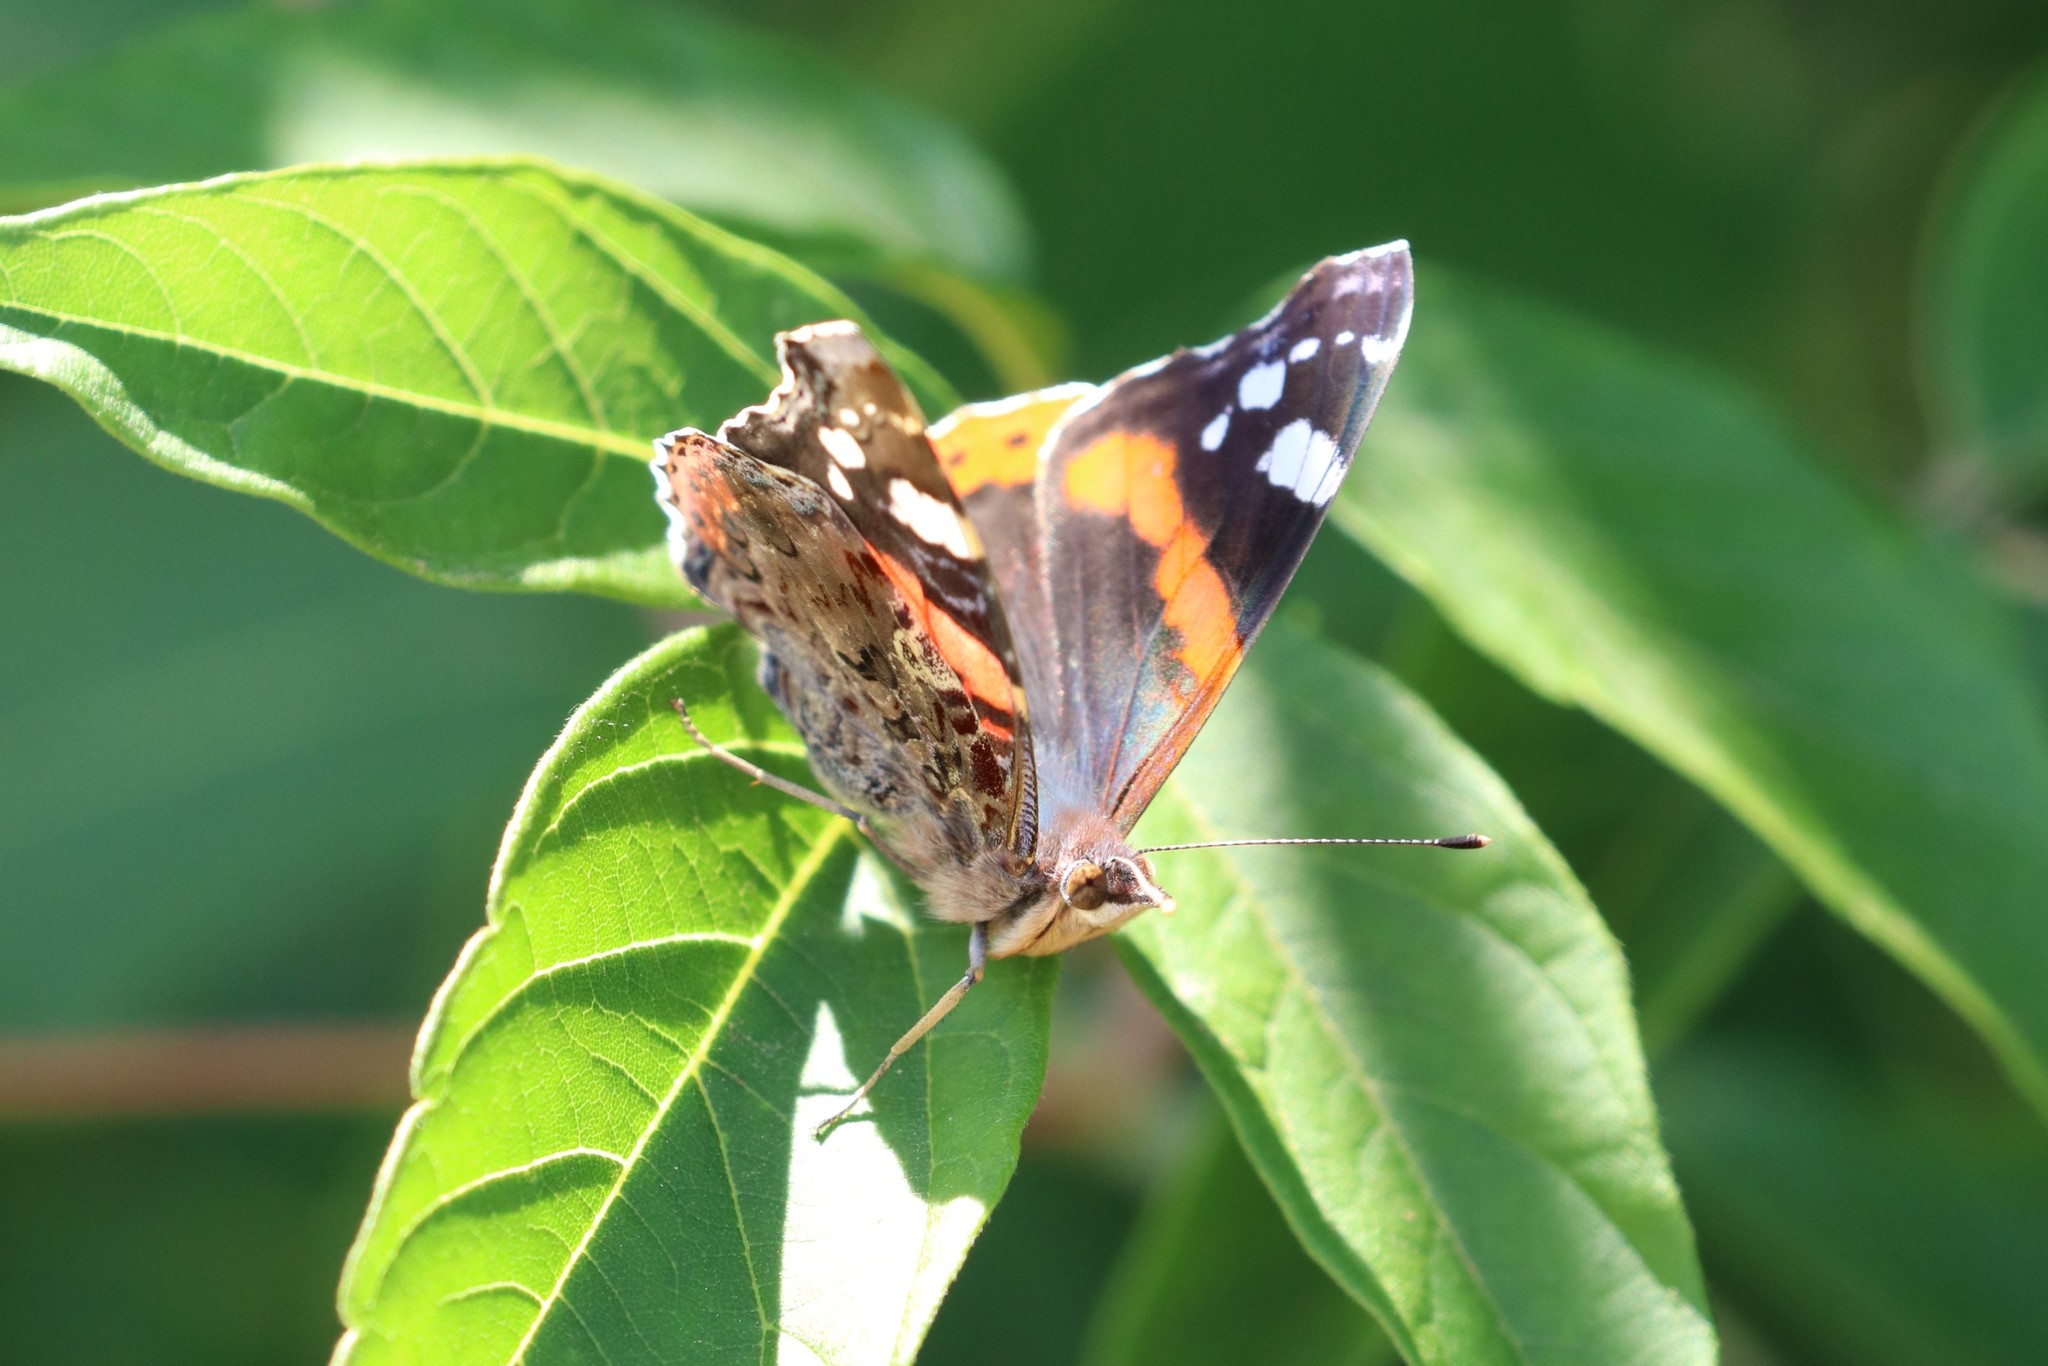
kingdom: Animalia
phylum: Arthropoda
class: Insecta
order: Lepidoptera
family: Nymphalidae
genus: Vanessa
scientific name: Vanessa atalanta
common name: Red admiral
